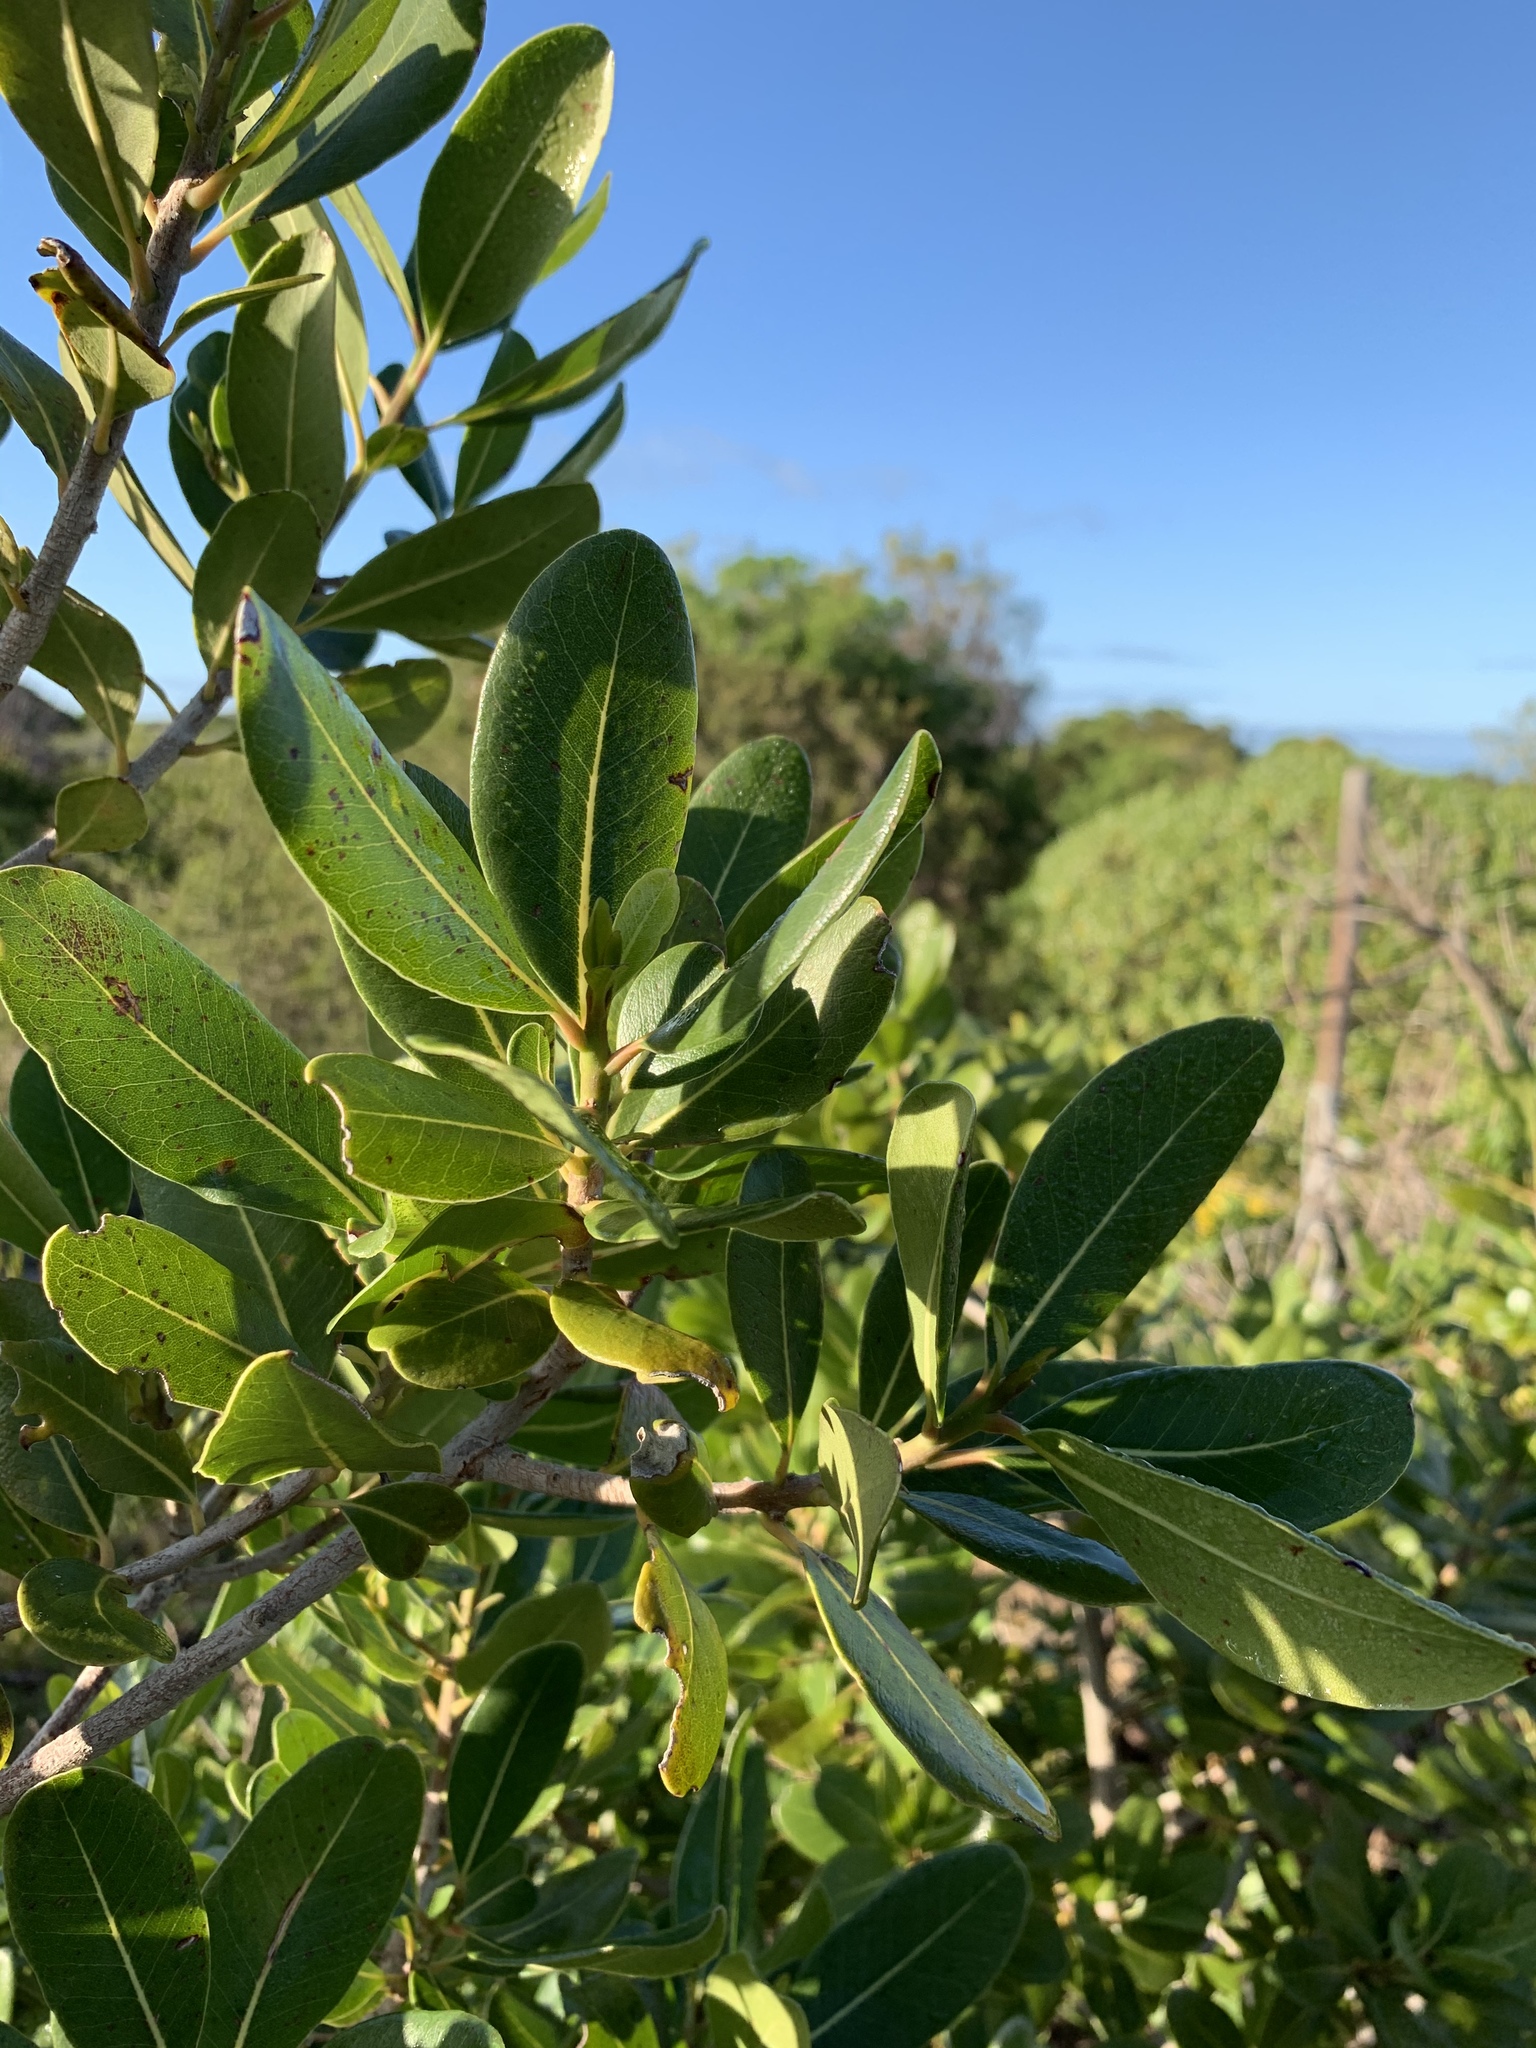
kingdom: Plantae
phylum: Tracheophyta
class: Magnoliopsida
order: Ericales
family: Sapotaceae
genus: Sideroxylon
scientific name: Sideroxylon inerme
